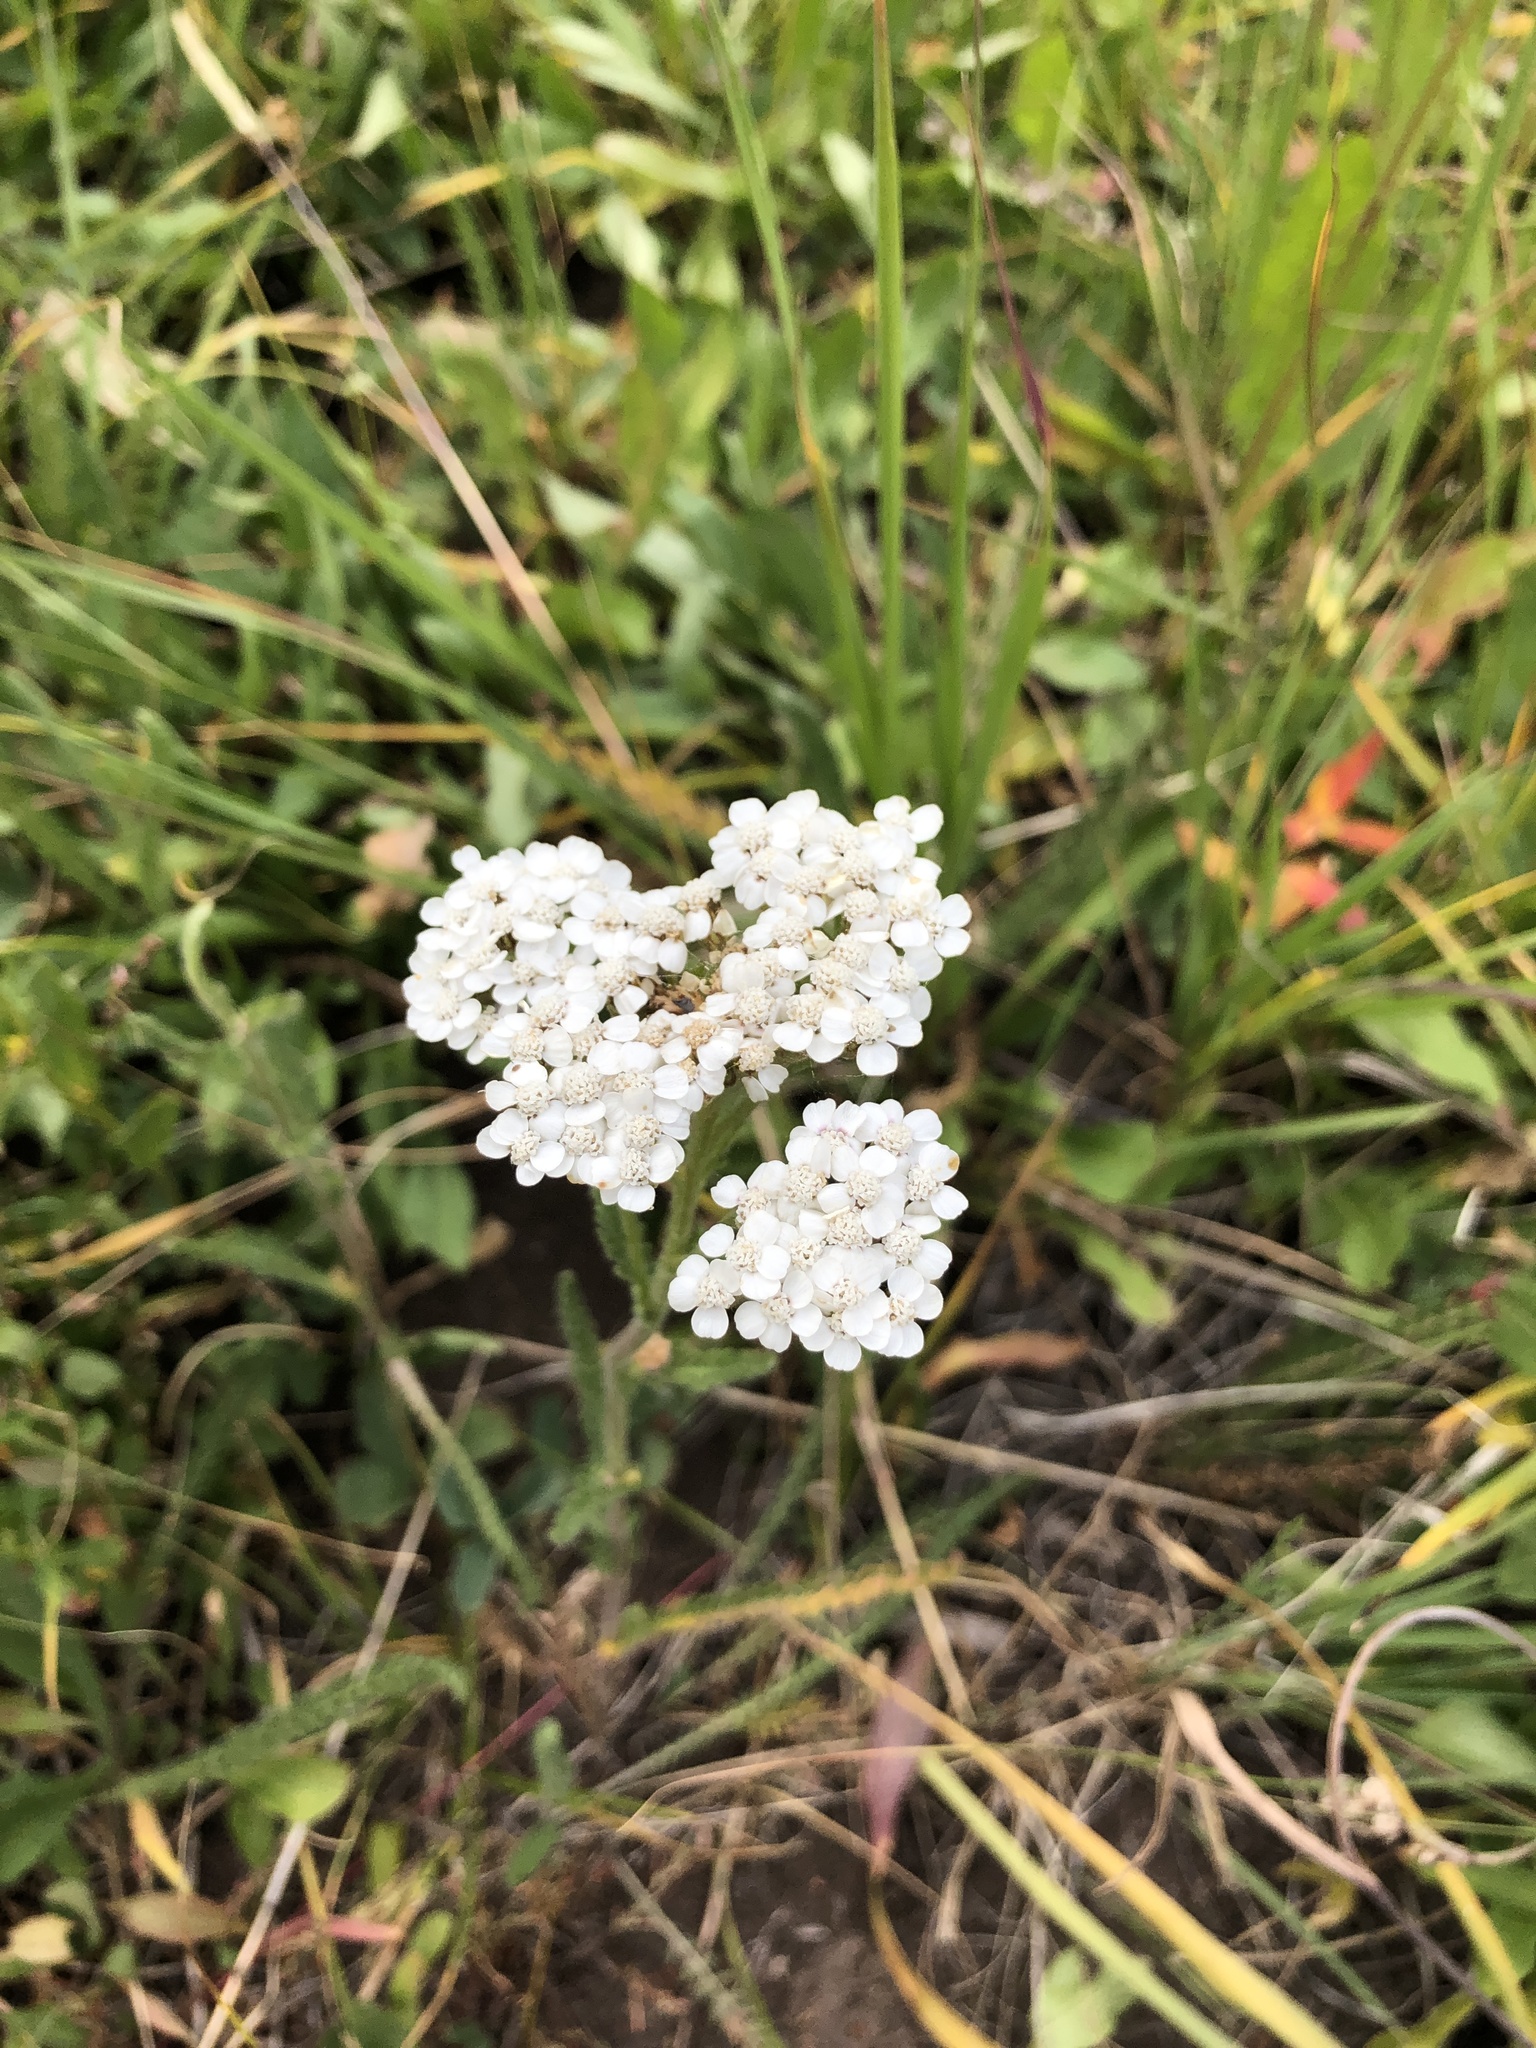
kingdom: Plantae
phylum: Tracheophyta
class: Magnoliopsida
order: Asterales
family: Asteraceae
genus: Achillea
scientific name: Achillea millefolium
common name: Yarrow
